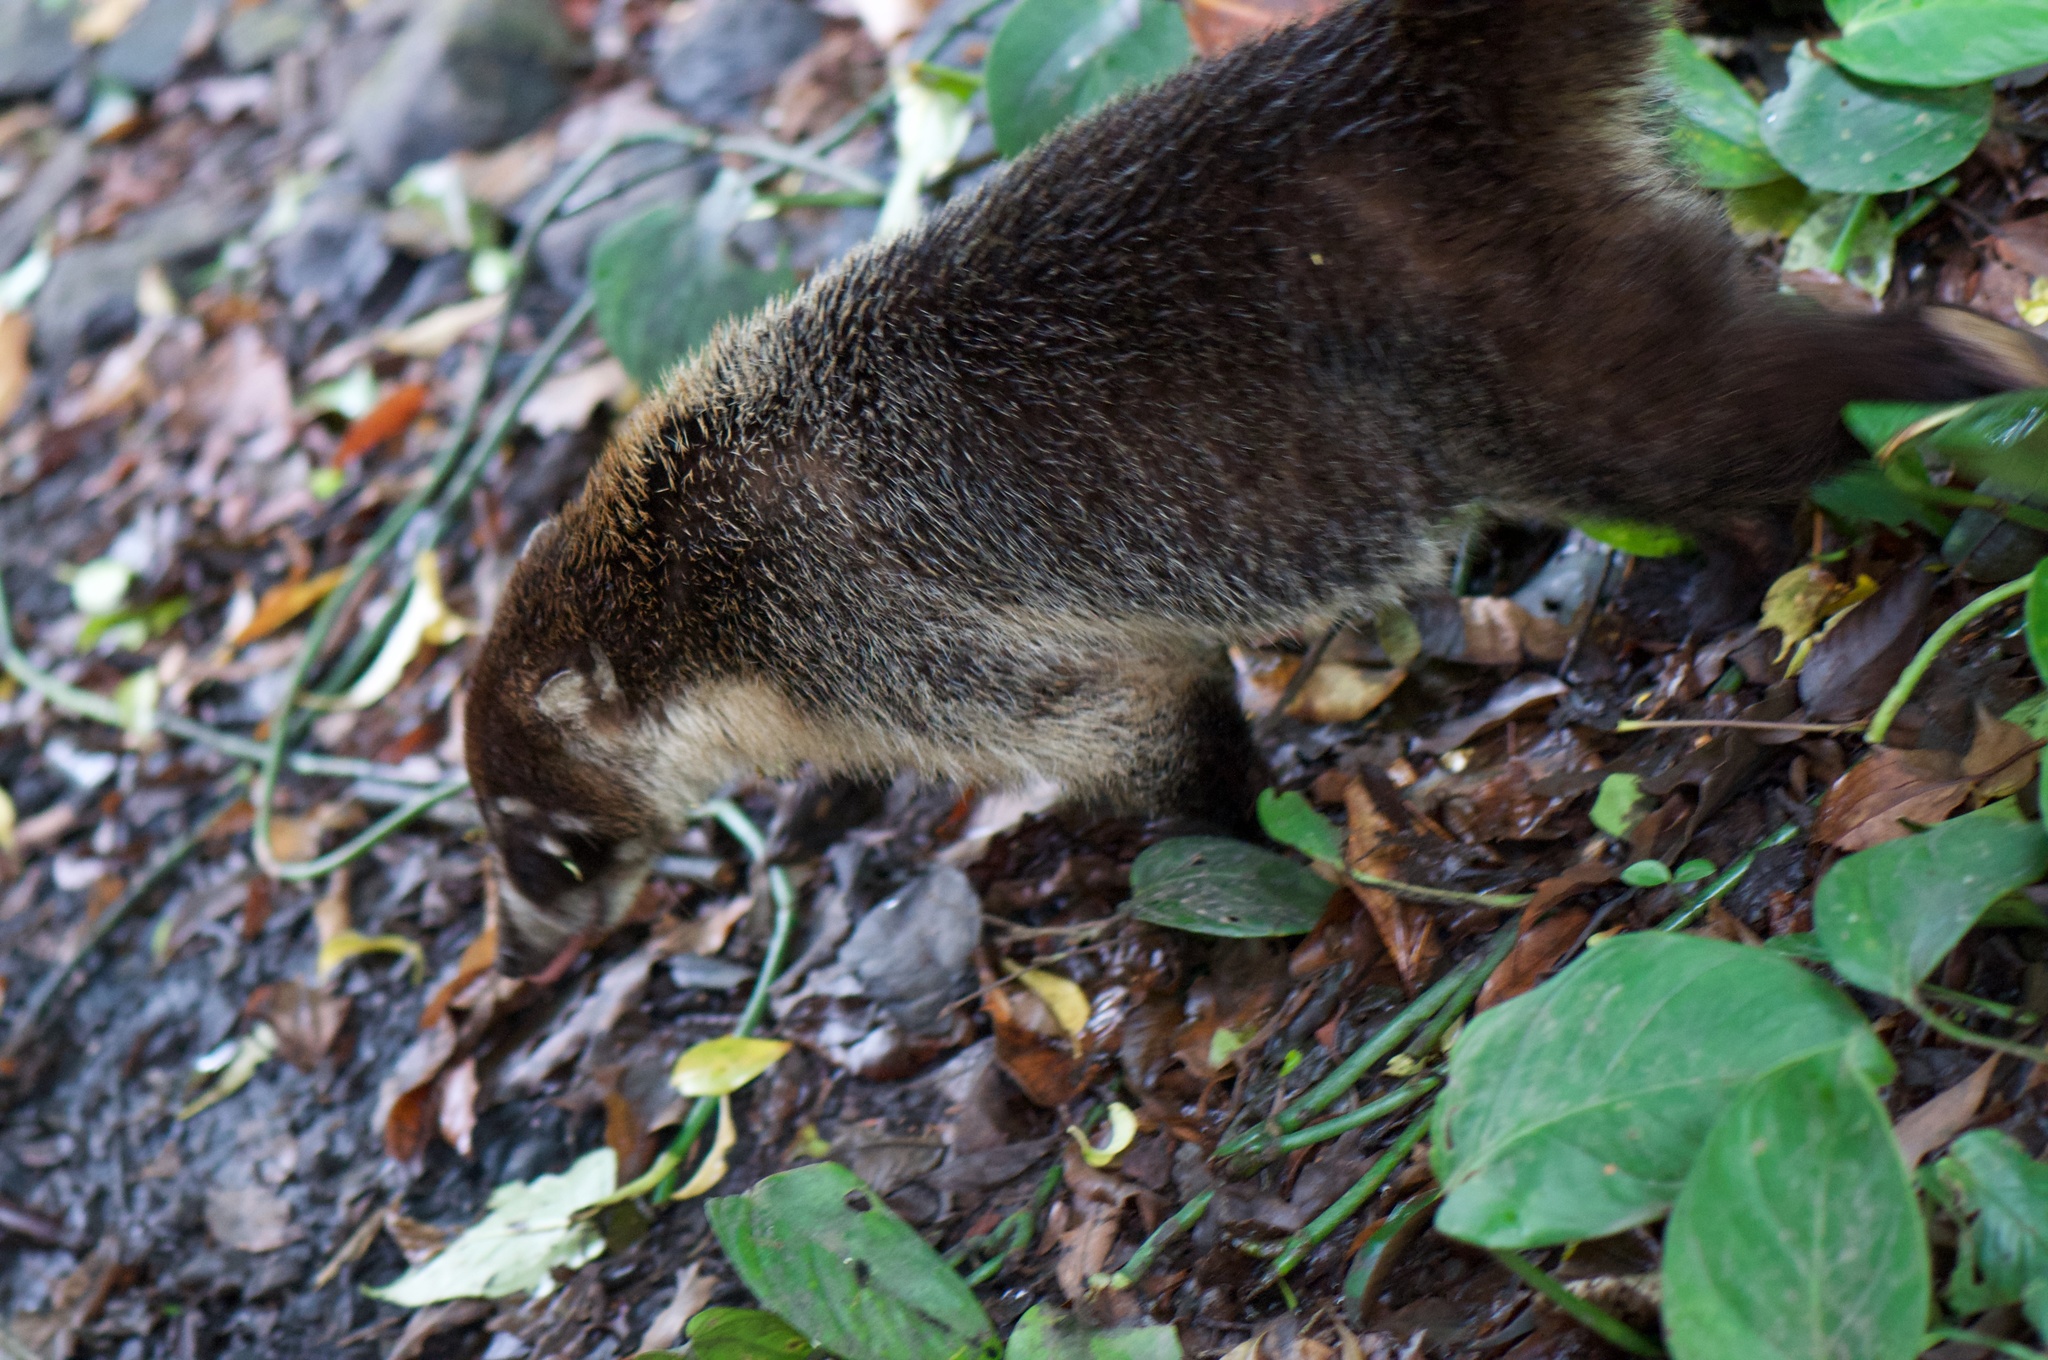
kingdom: Animalia
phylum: Chordata
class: Mammalia
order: Carnivora
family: Procyonidae
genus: Nasua
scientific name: Nasua narica
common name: White-nosed coati
